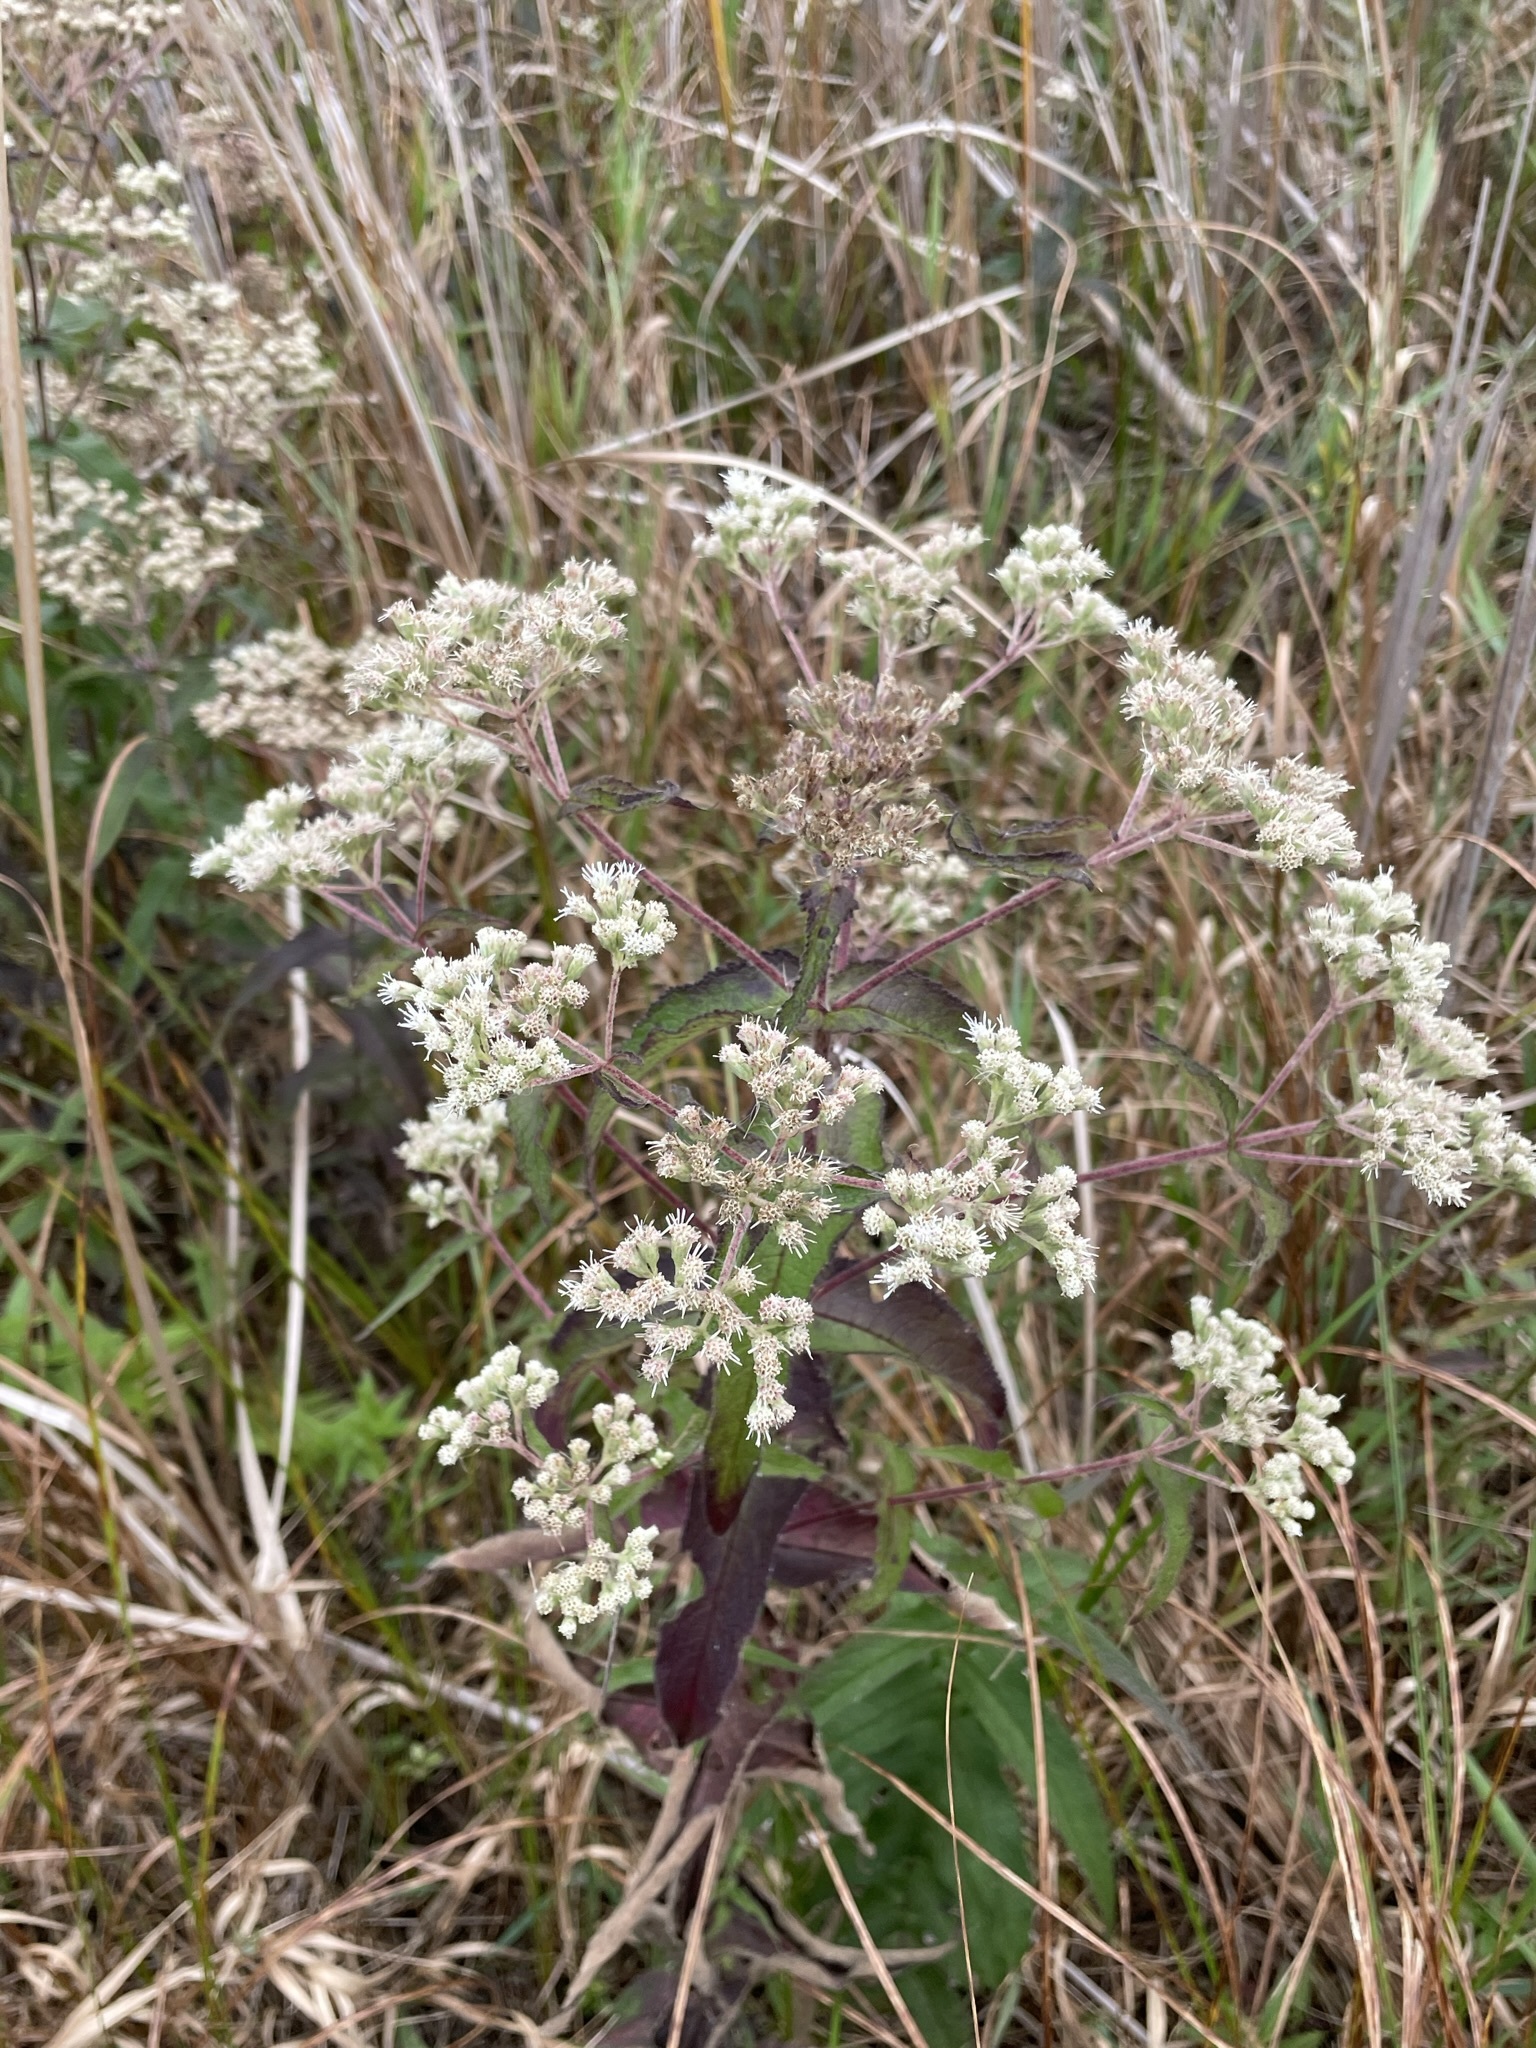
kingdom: Plantae
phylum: Tracheophyta
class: Magnoliopsida
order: Asterales
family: Asteraceae
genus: Eupatorium
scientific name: Eupatorium perfoliatum
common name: Boneset
